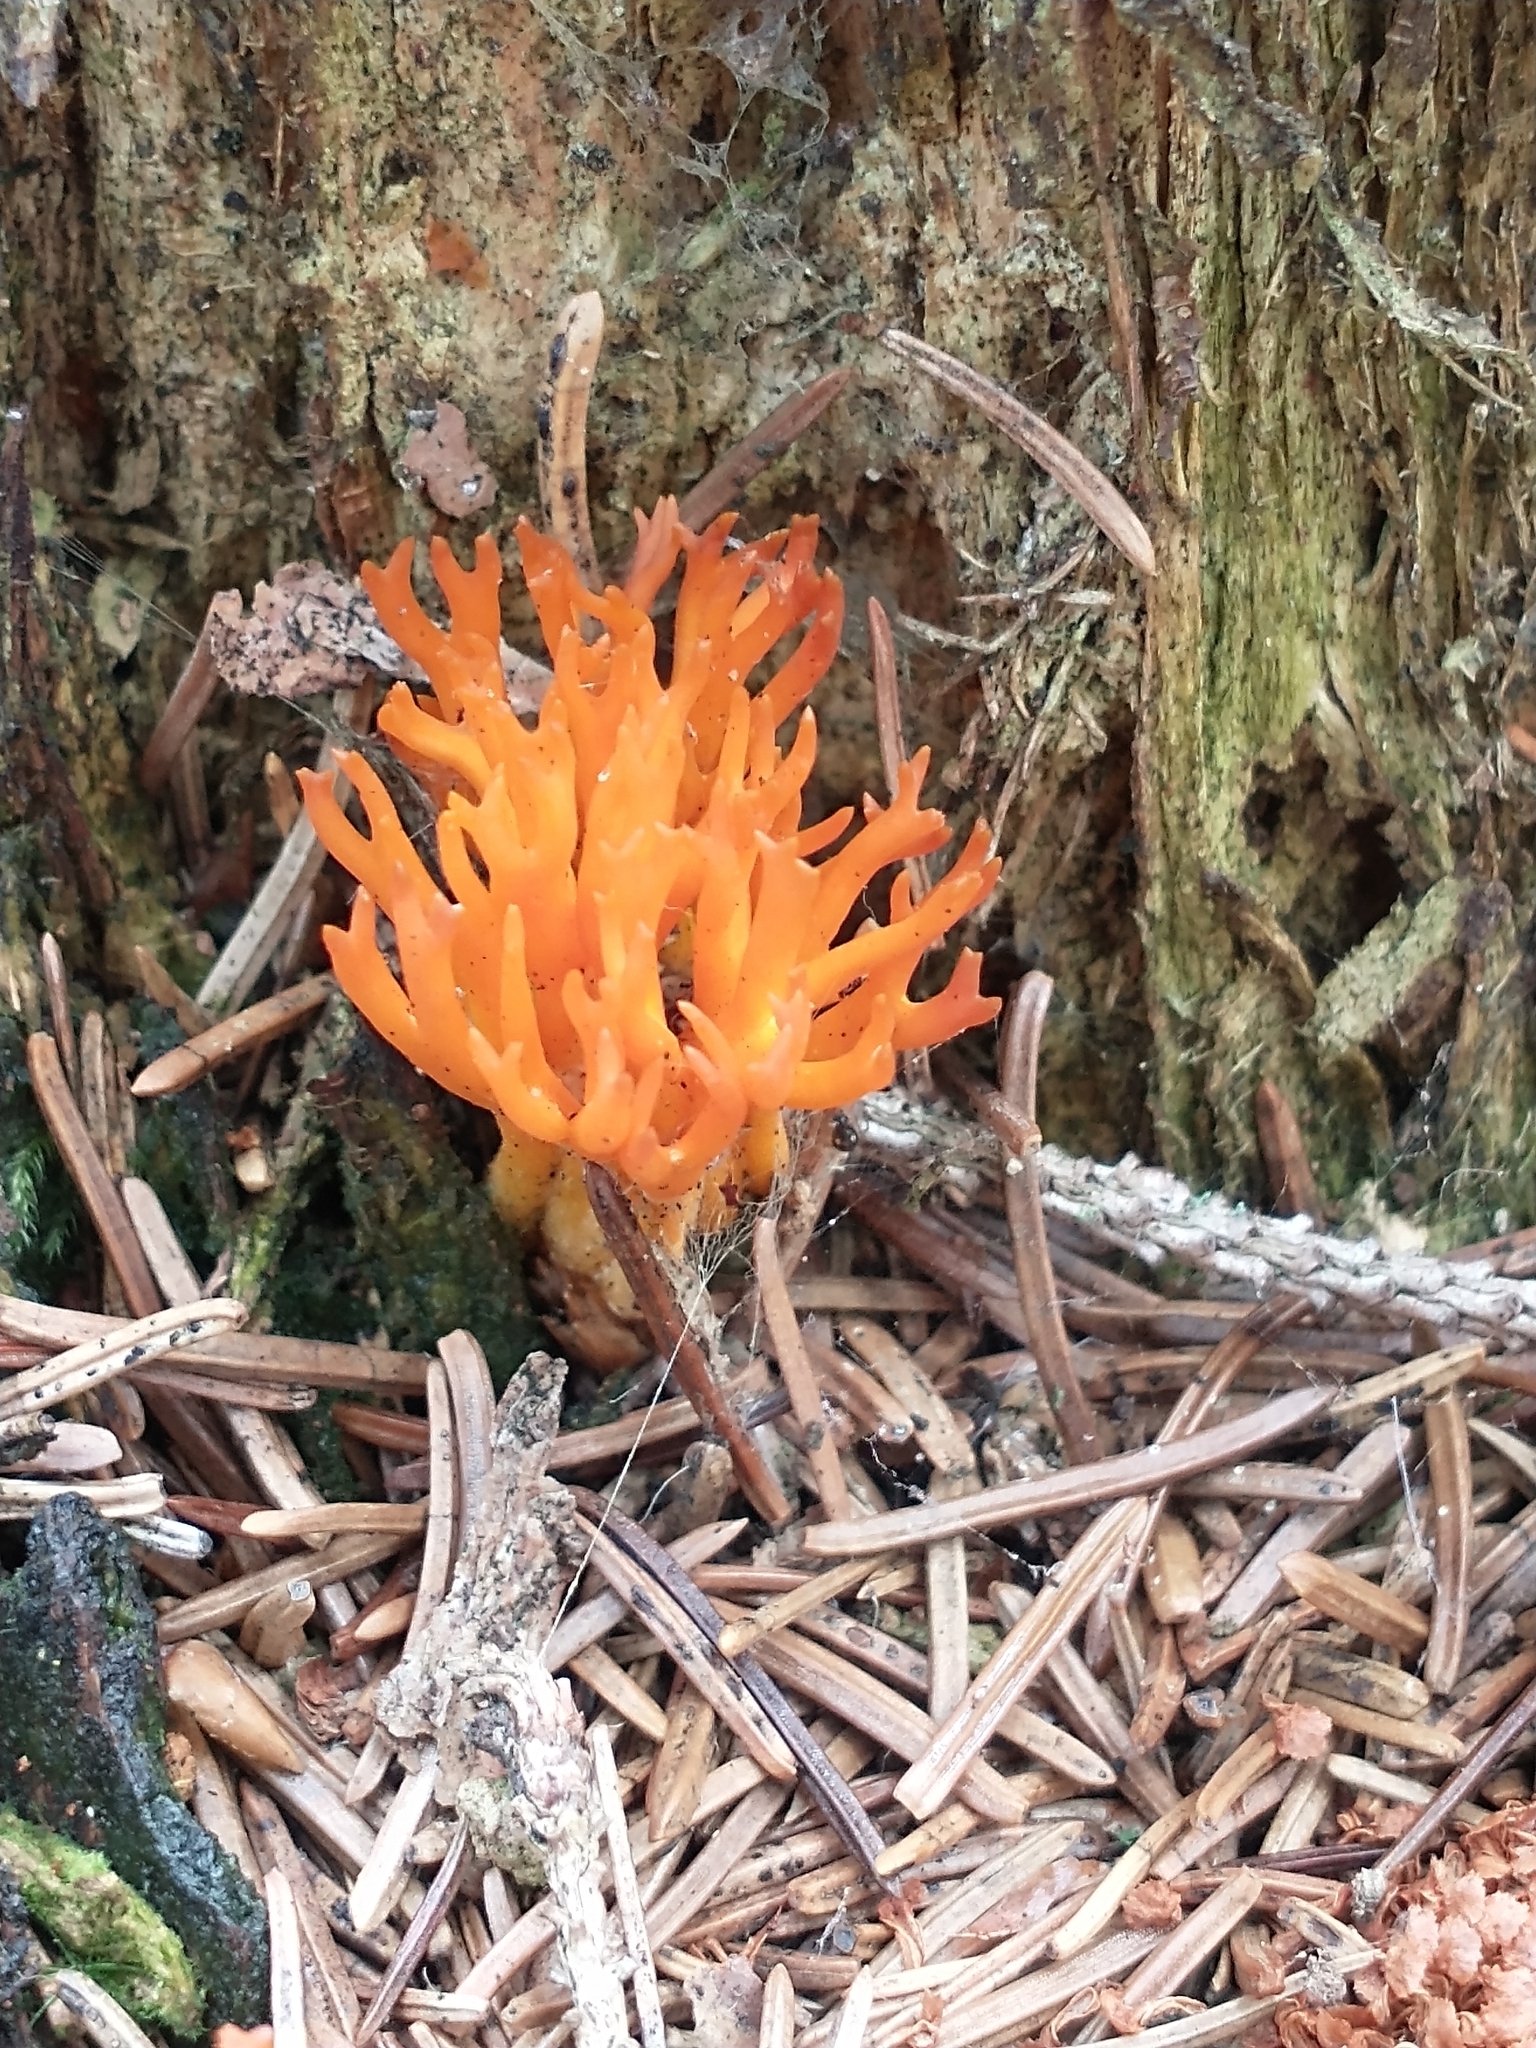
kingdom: Fungi
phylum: Basidiomycota
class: Dacrymycetes
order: Dacrymycetales
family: Dacrymycetaceae
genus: Calocera
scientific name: Calocera viscosa
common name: Yellow stagshorn
